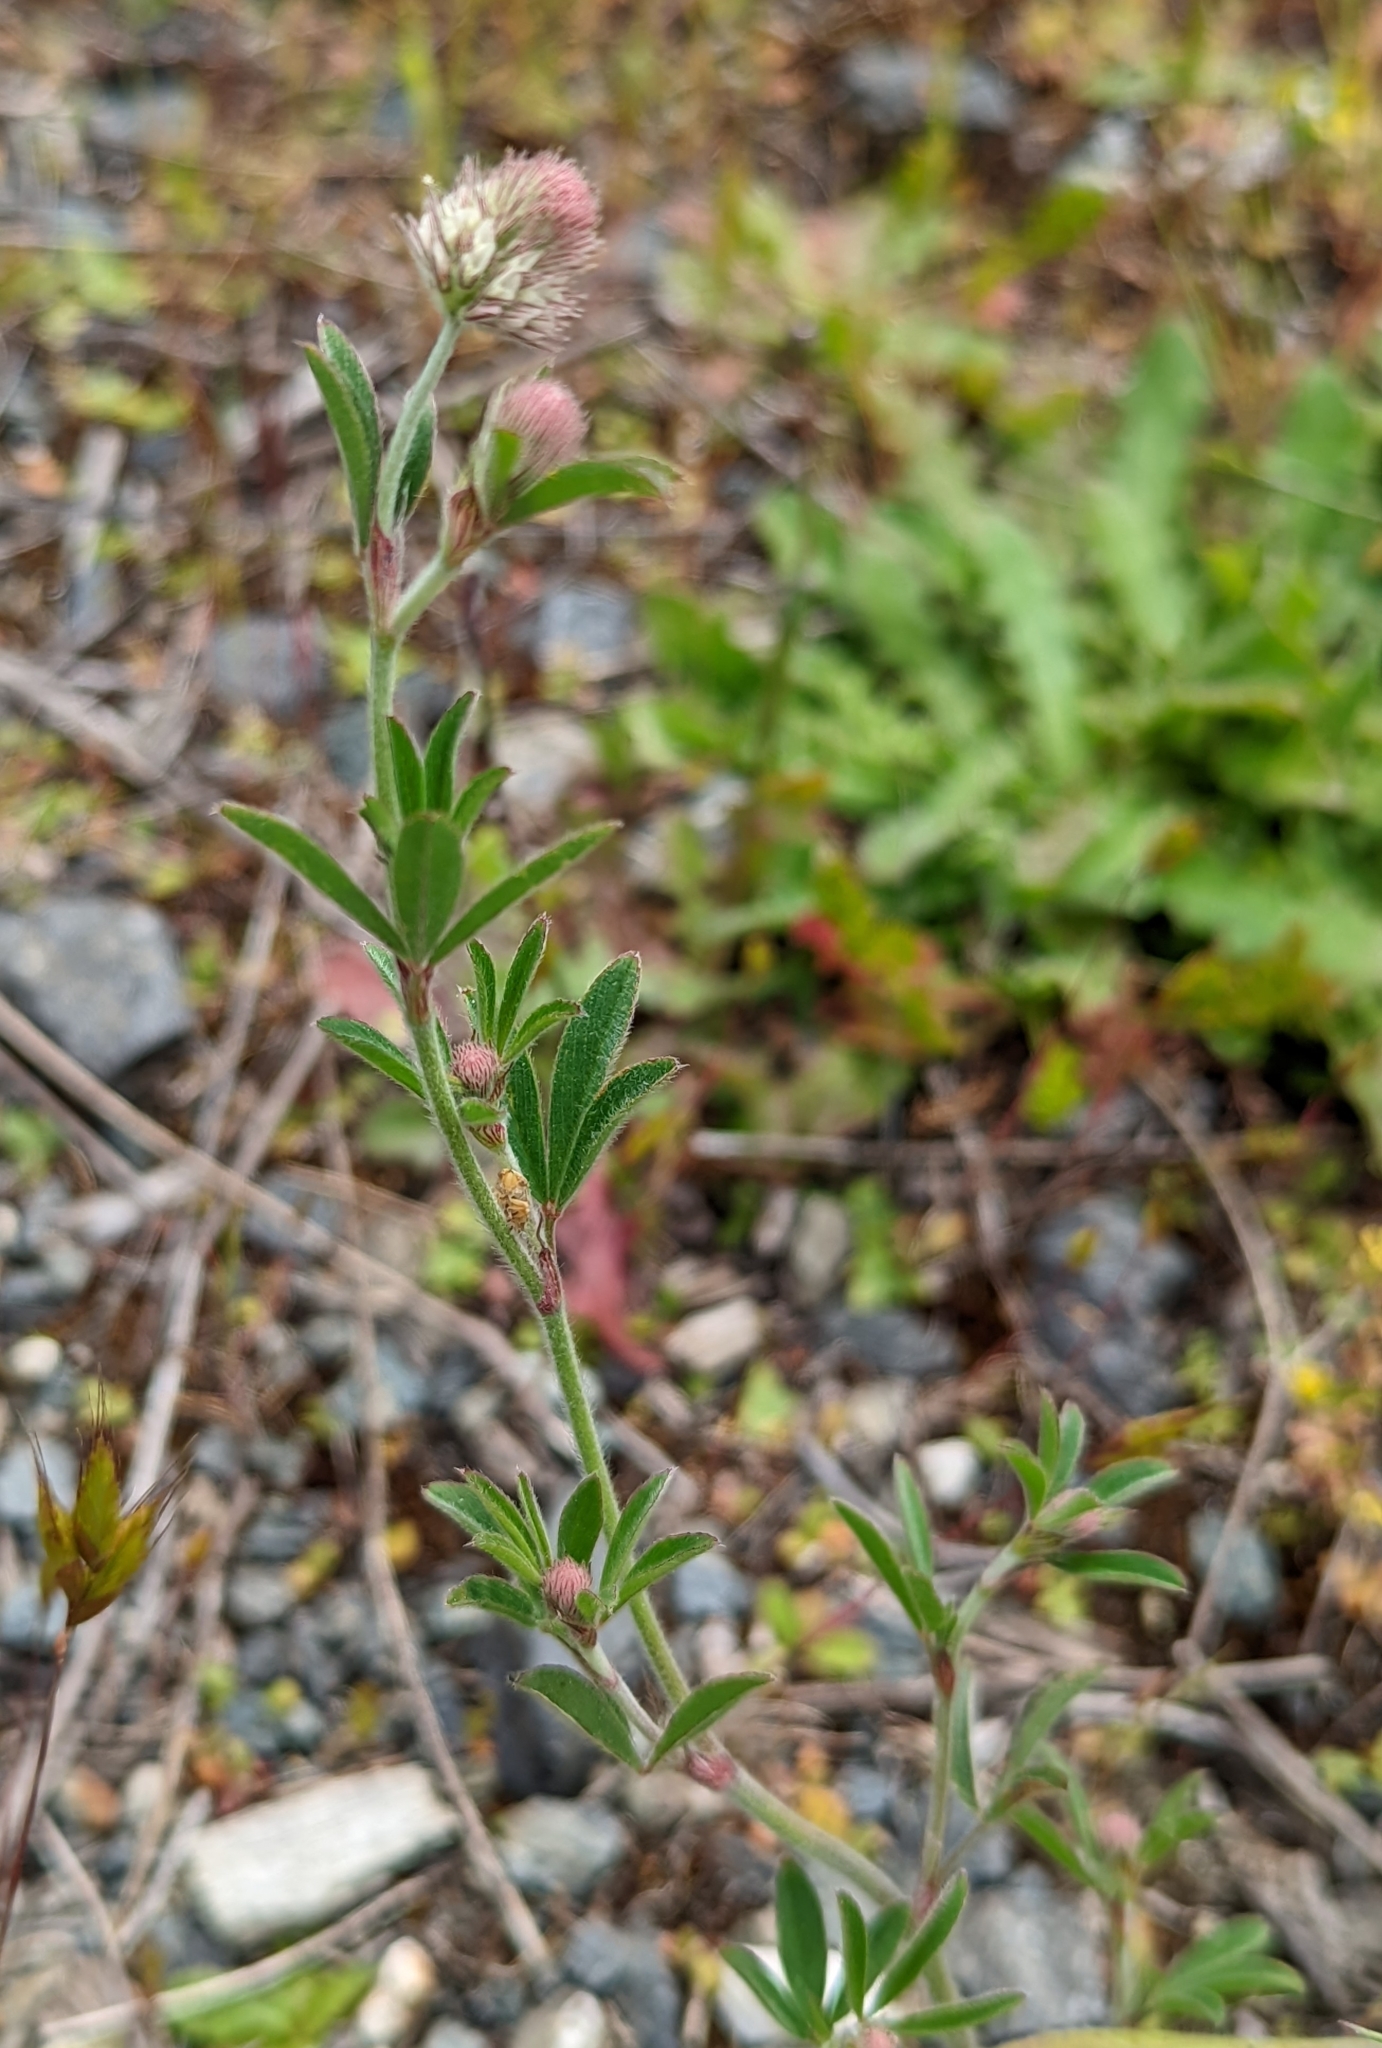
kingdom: Plantae
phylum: Tracheophyta
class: Magnoliopsida
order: Fabales
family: Fabaceae
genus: Trifolium
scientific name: Trifolium arvense
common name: Hare's-foot clover
